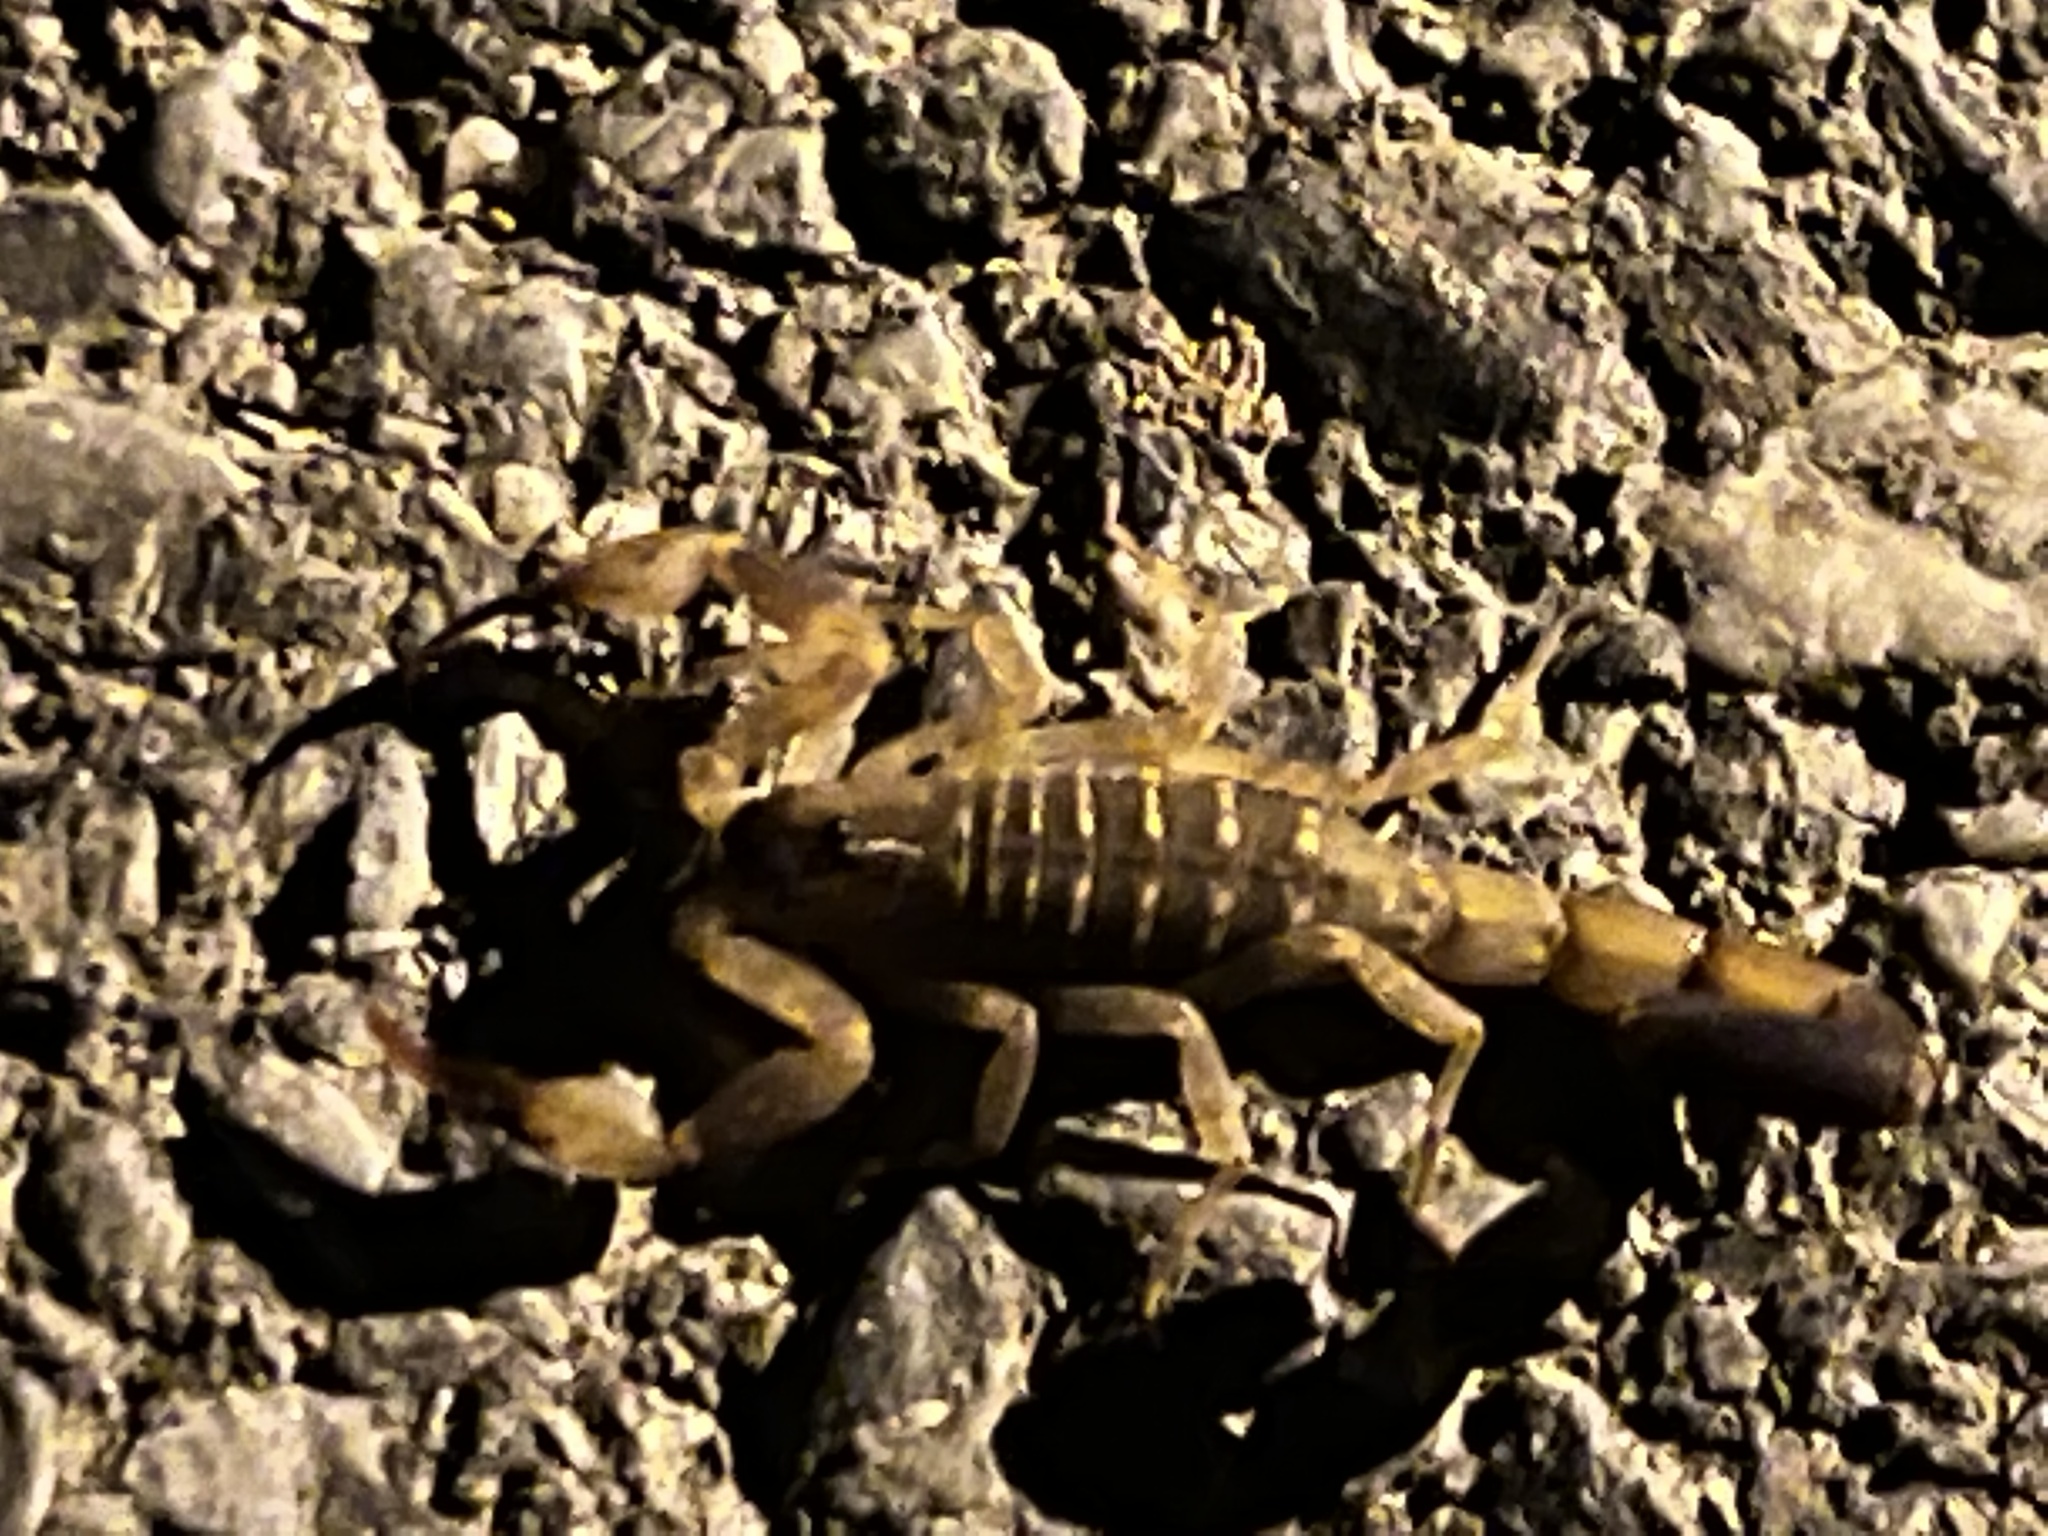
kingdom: Animalia
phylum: Arthropoda
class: Arachnida
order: Scorpiones
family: Buthidae
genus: Lychas
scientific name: Lychas mucronatus
